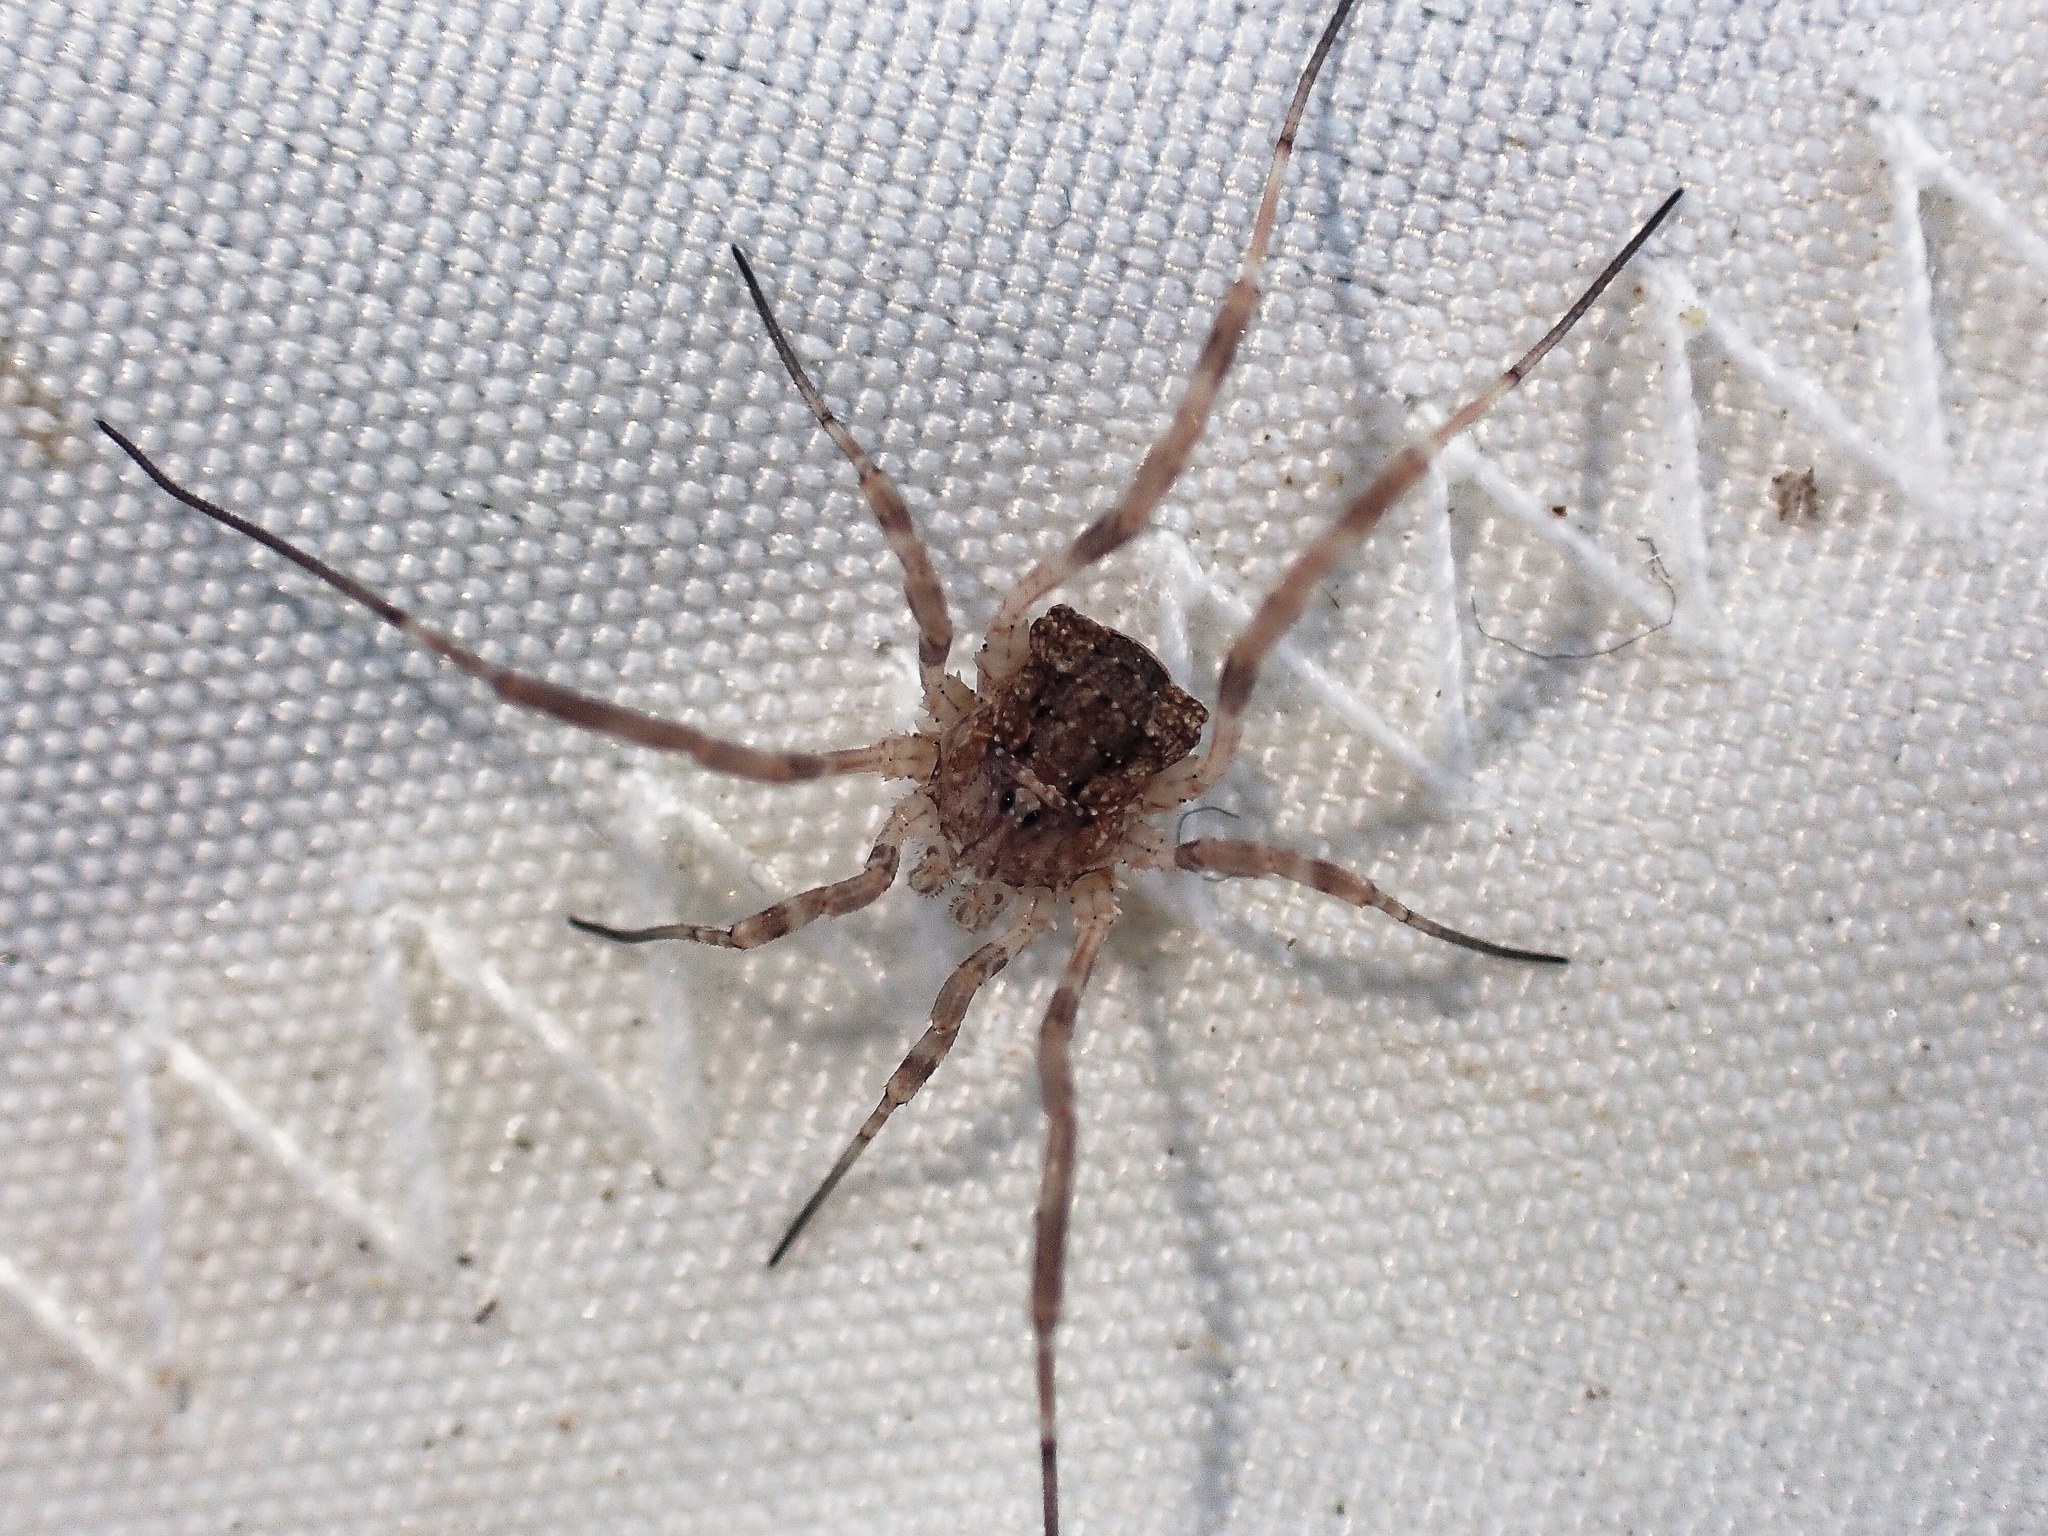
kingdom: Animalia
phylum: Arthropoda
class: Arachnida
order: Opiliones
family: Phalangiidae
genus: Odiellus
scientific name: Odiellus spinosus
